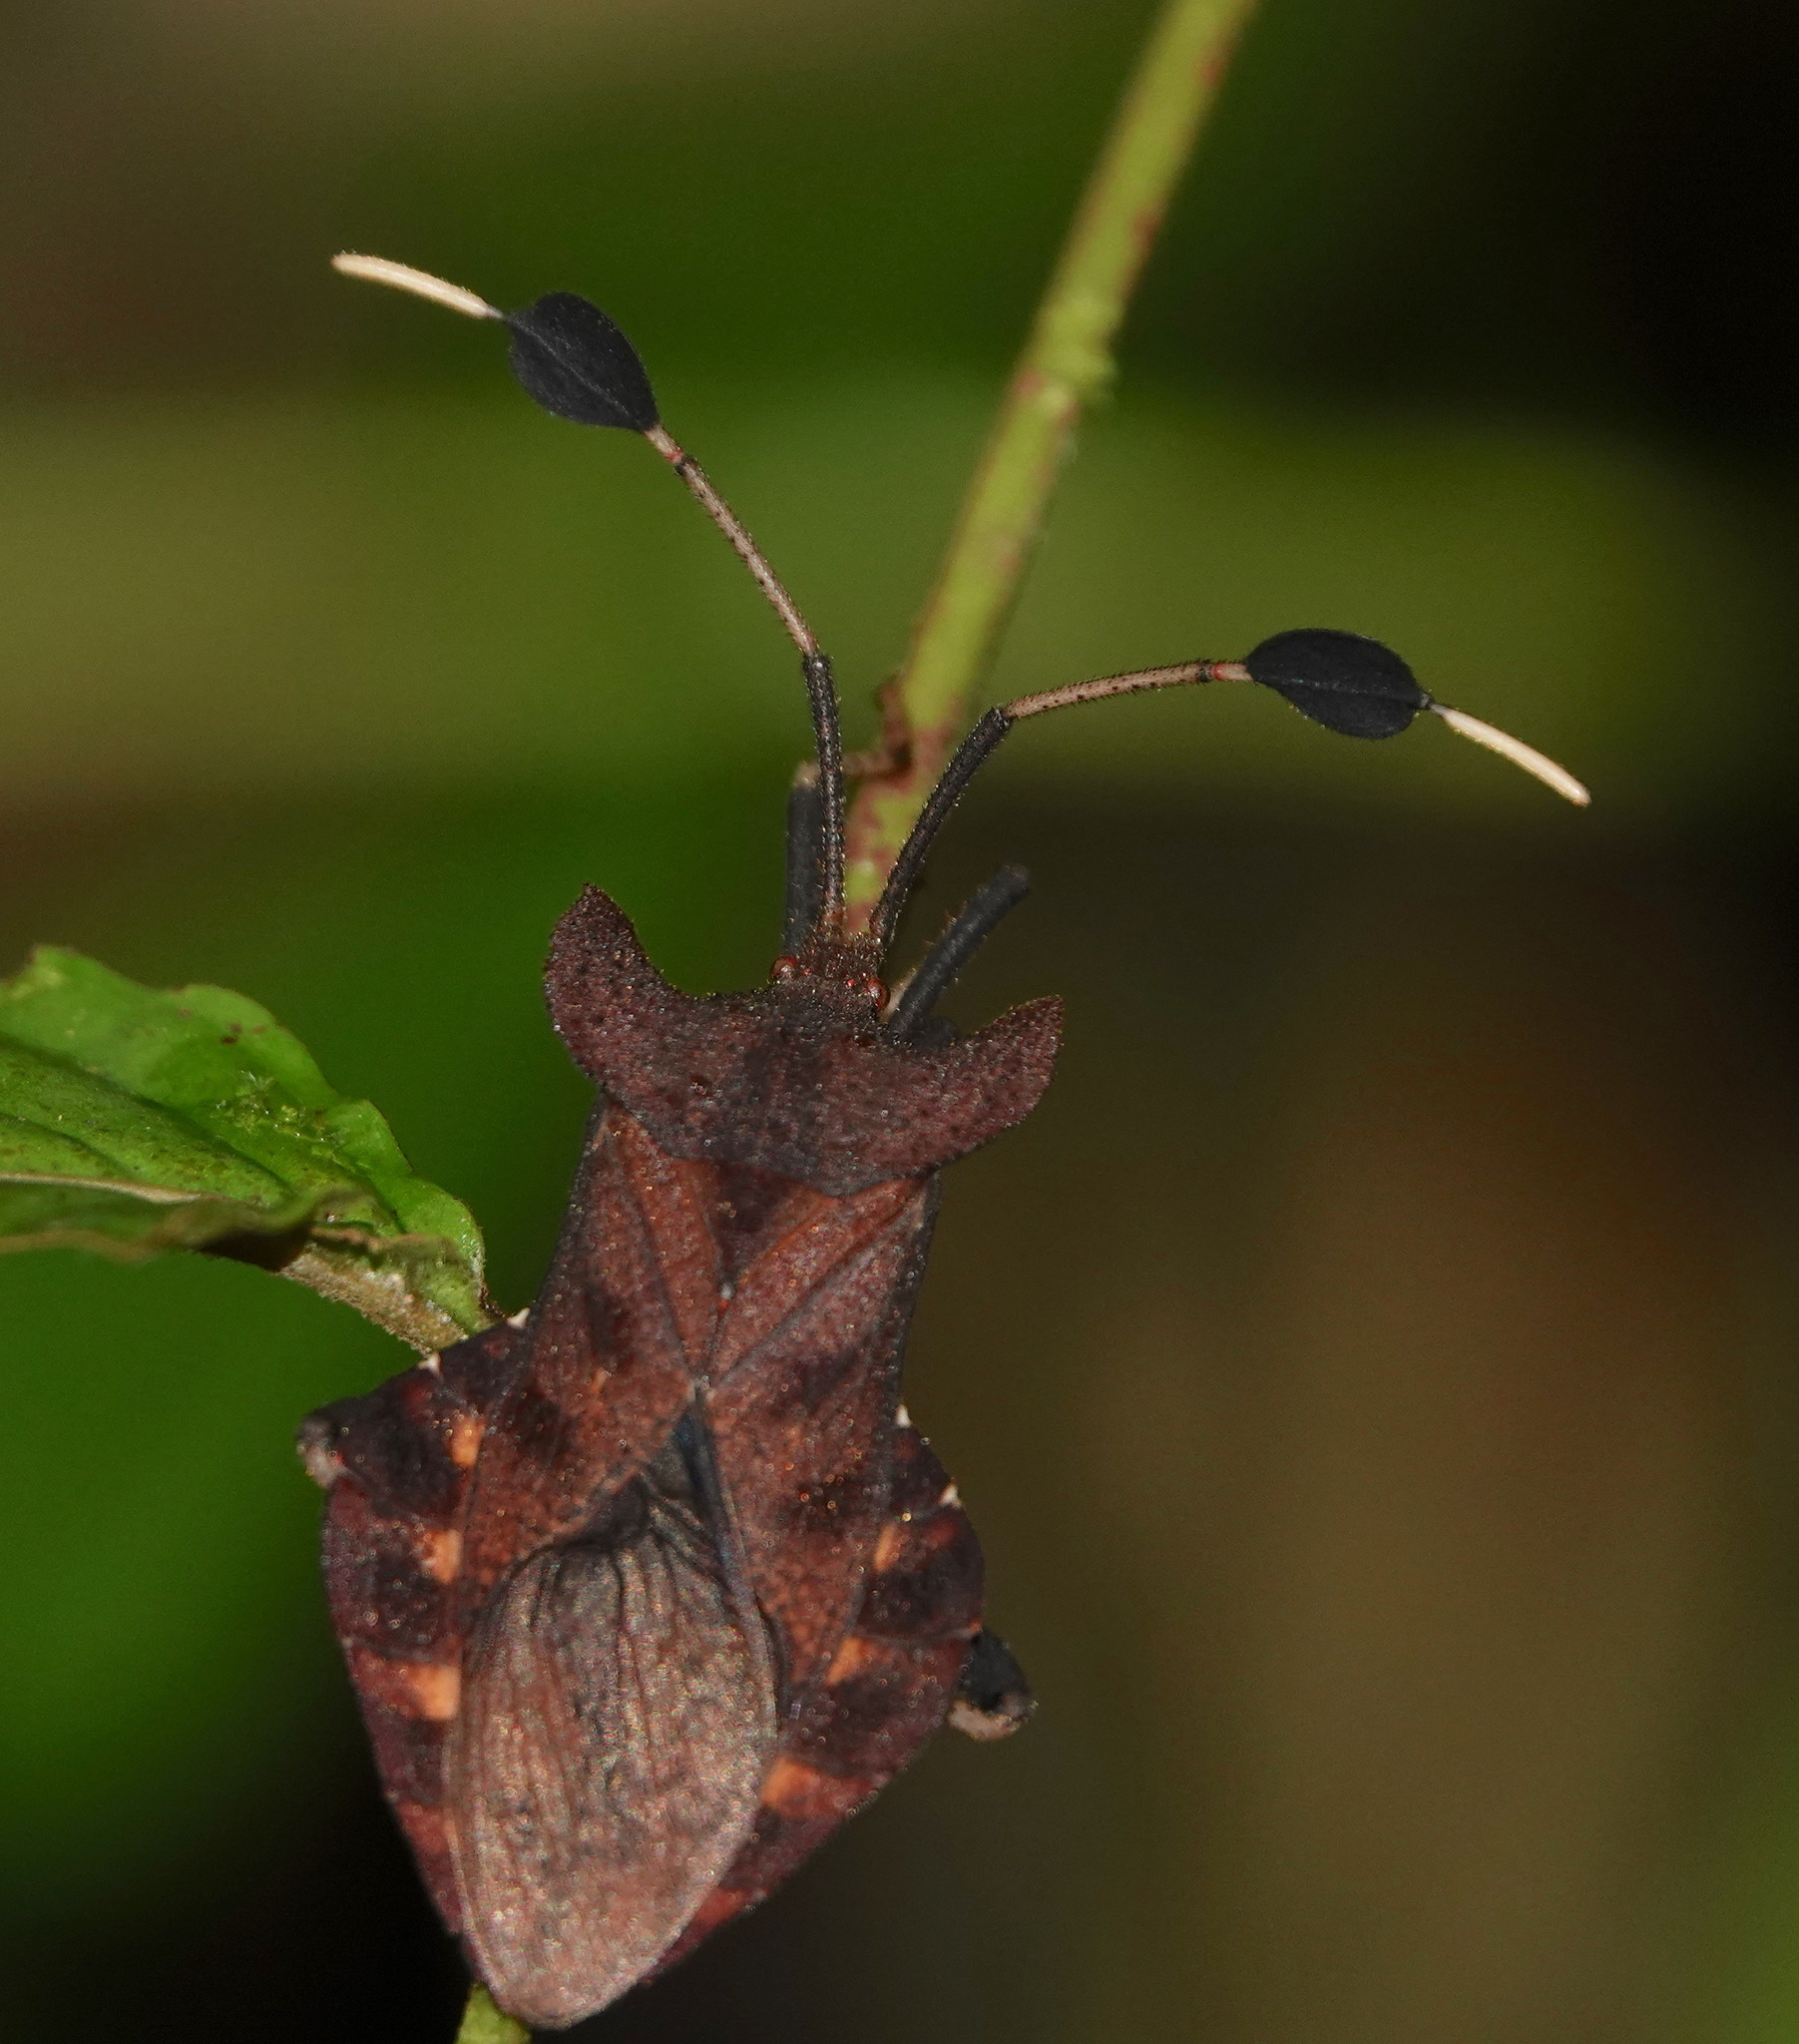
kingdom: Animalia
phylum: Arthropoda
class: Insecta
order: Hemiptera
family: Coreidae
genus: Dalader
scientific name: Dalader acuticosta
